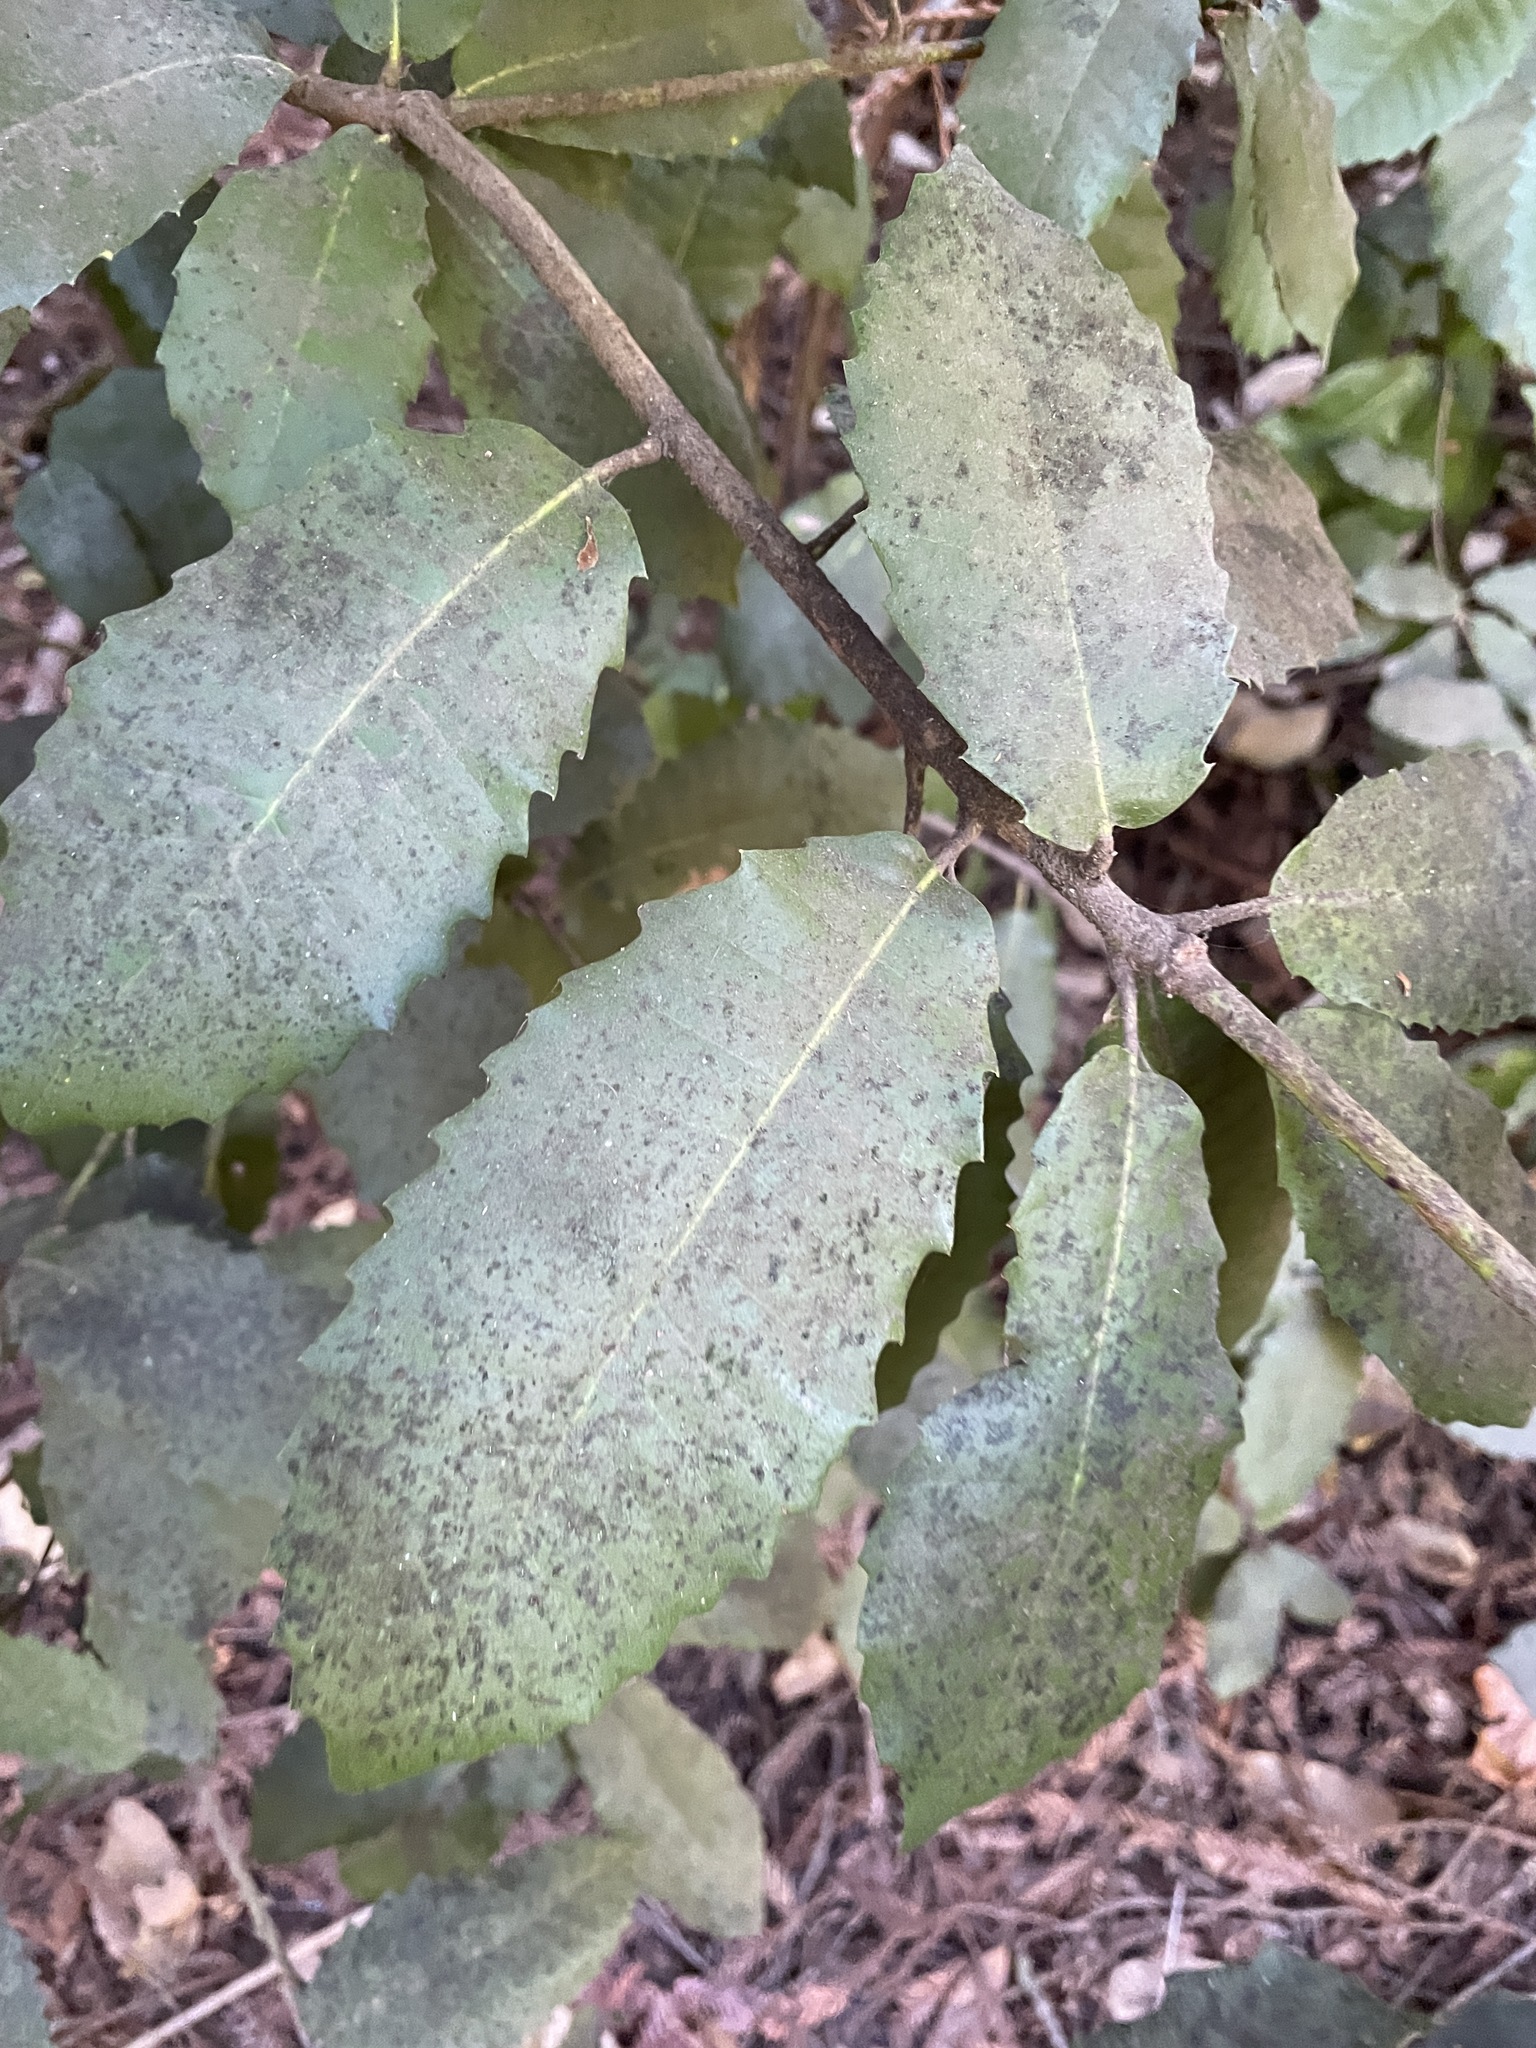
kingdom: Plantae
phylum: Tracheophyta
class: Magnoliopsida
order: Fagales
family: Fagaceae
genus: Notholithocarpus
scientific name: Notholithocarpus densiflorus
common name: Tan bark oak
